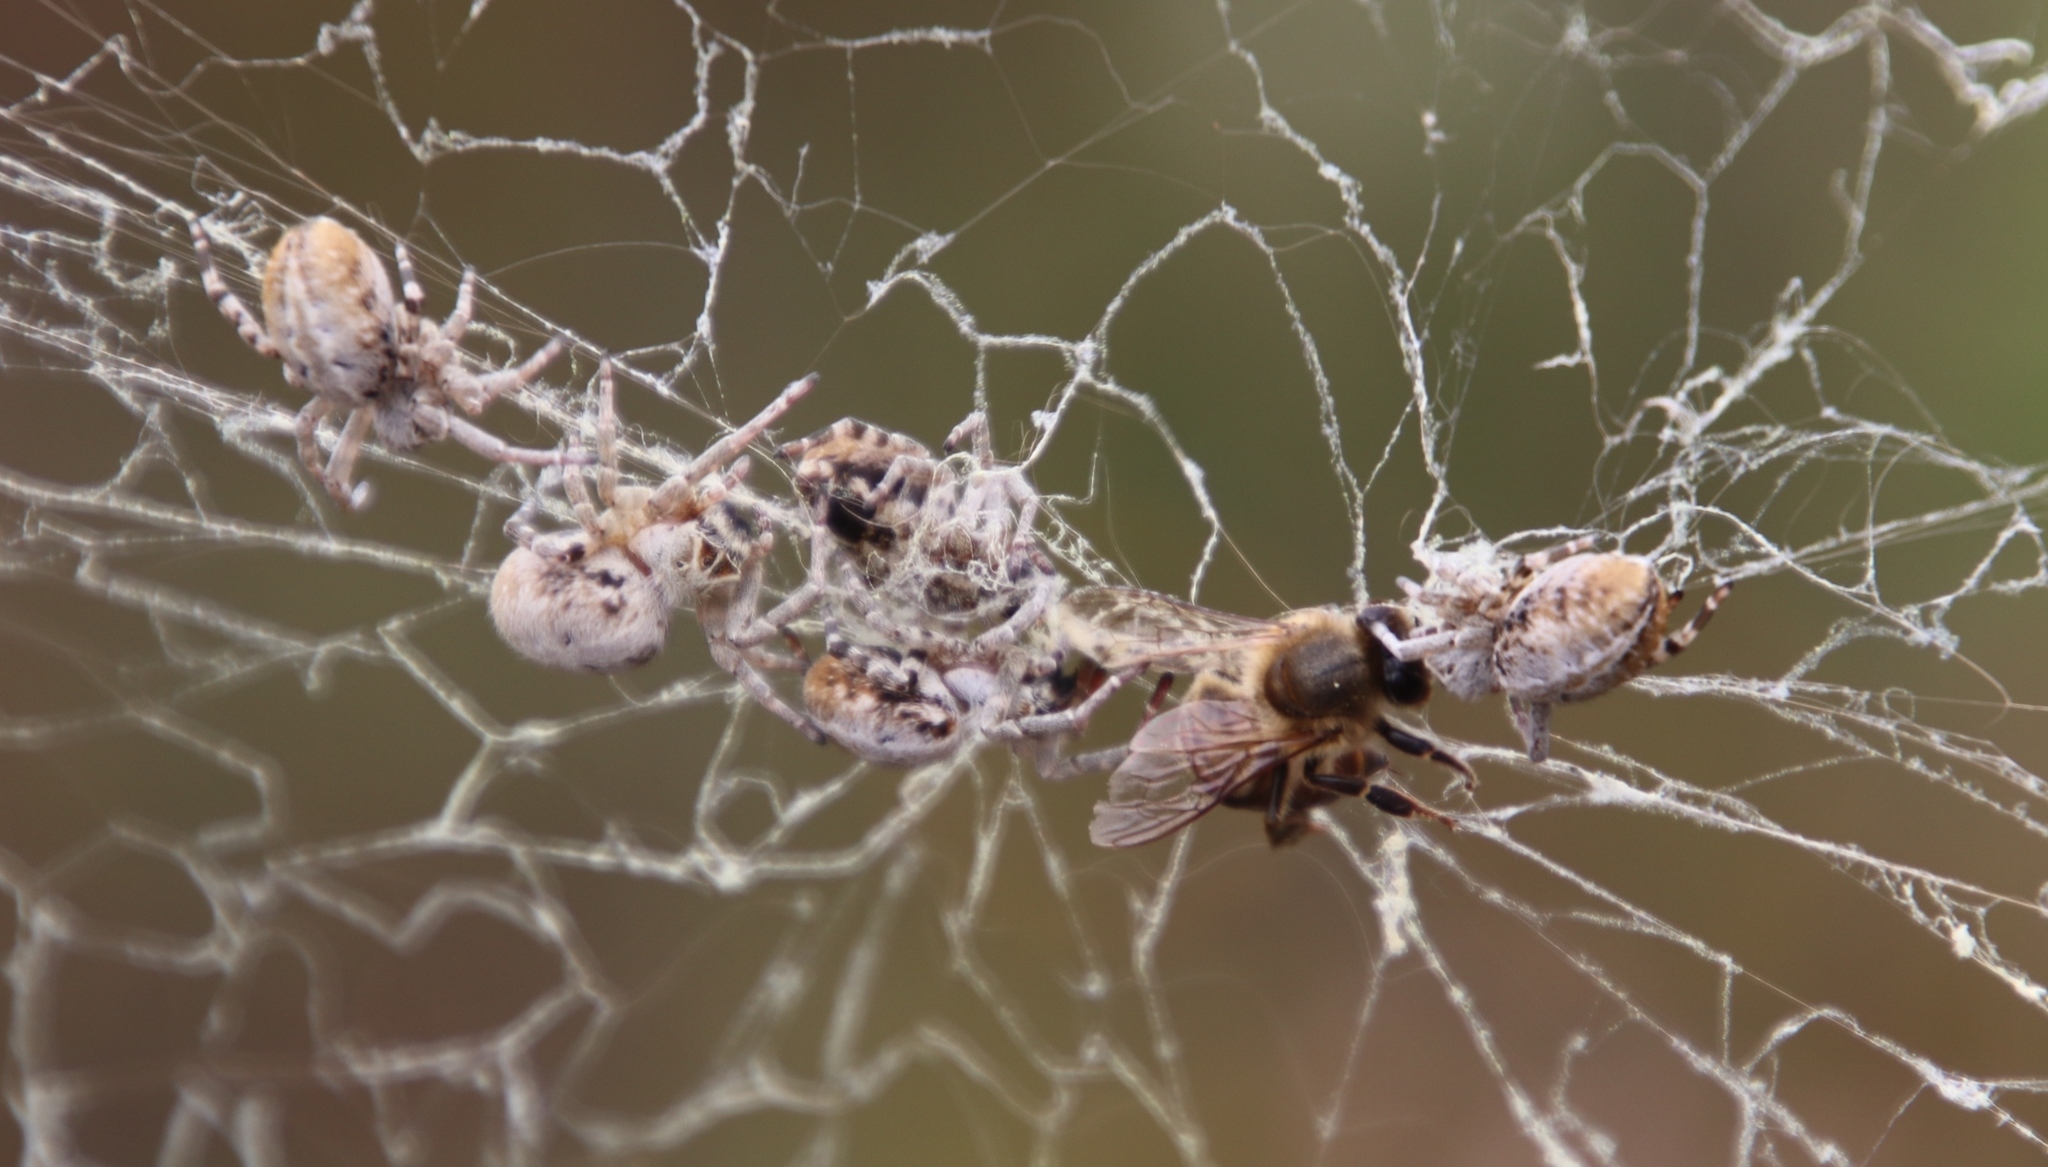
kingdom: Animalia
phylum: Arthropoda
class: Arachnida
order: Araneae
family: Eresidae
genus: Stegodyphus
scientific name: Stegodyphus dumicola
